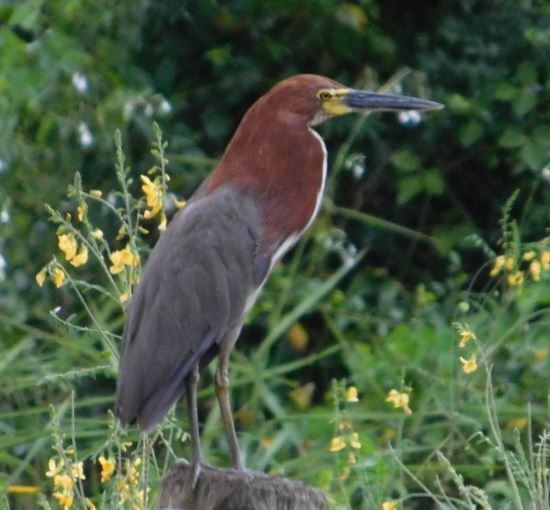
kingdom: Animalia
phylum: Chordata
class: Aves
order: Pelecaniformes
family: Ardeidae
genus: Tigrisoma
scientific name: Tigrisoma lineatum
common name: Rufescent tiger-heron
